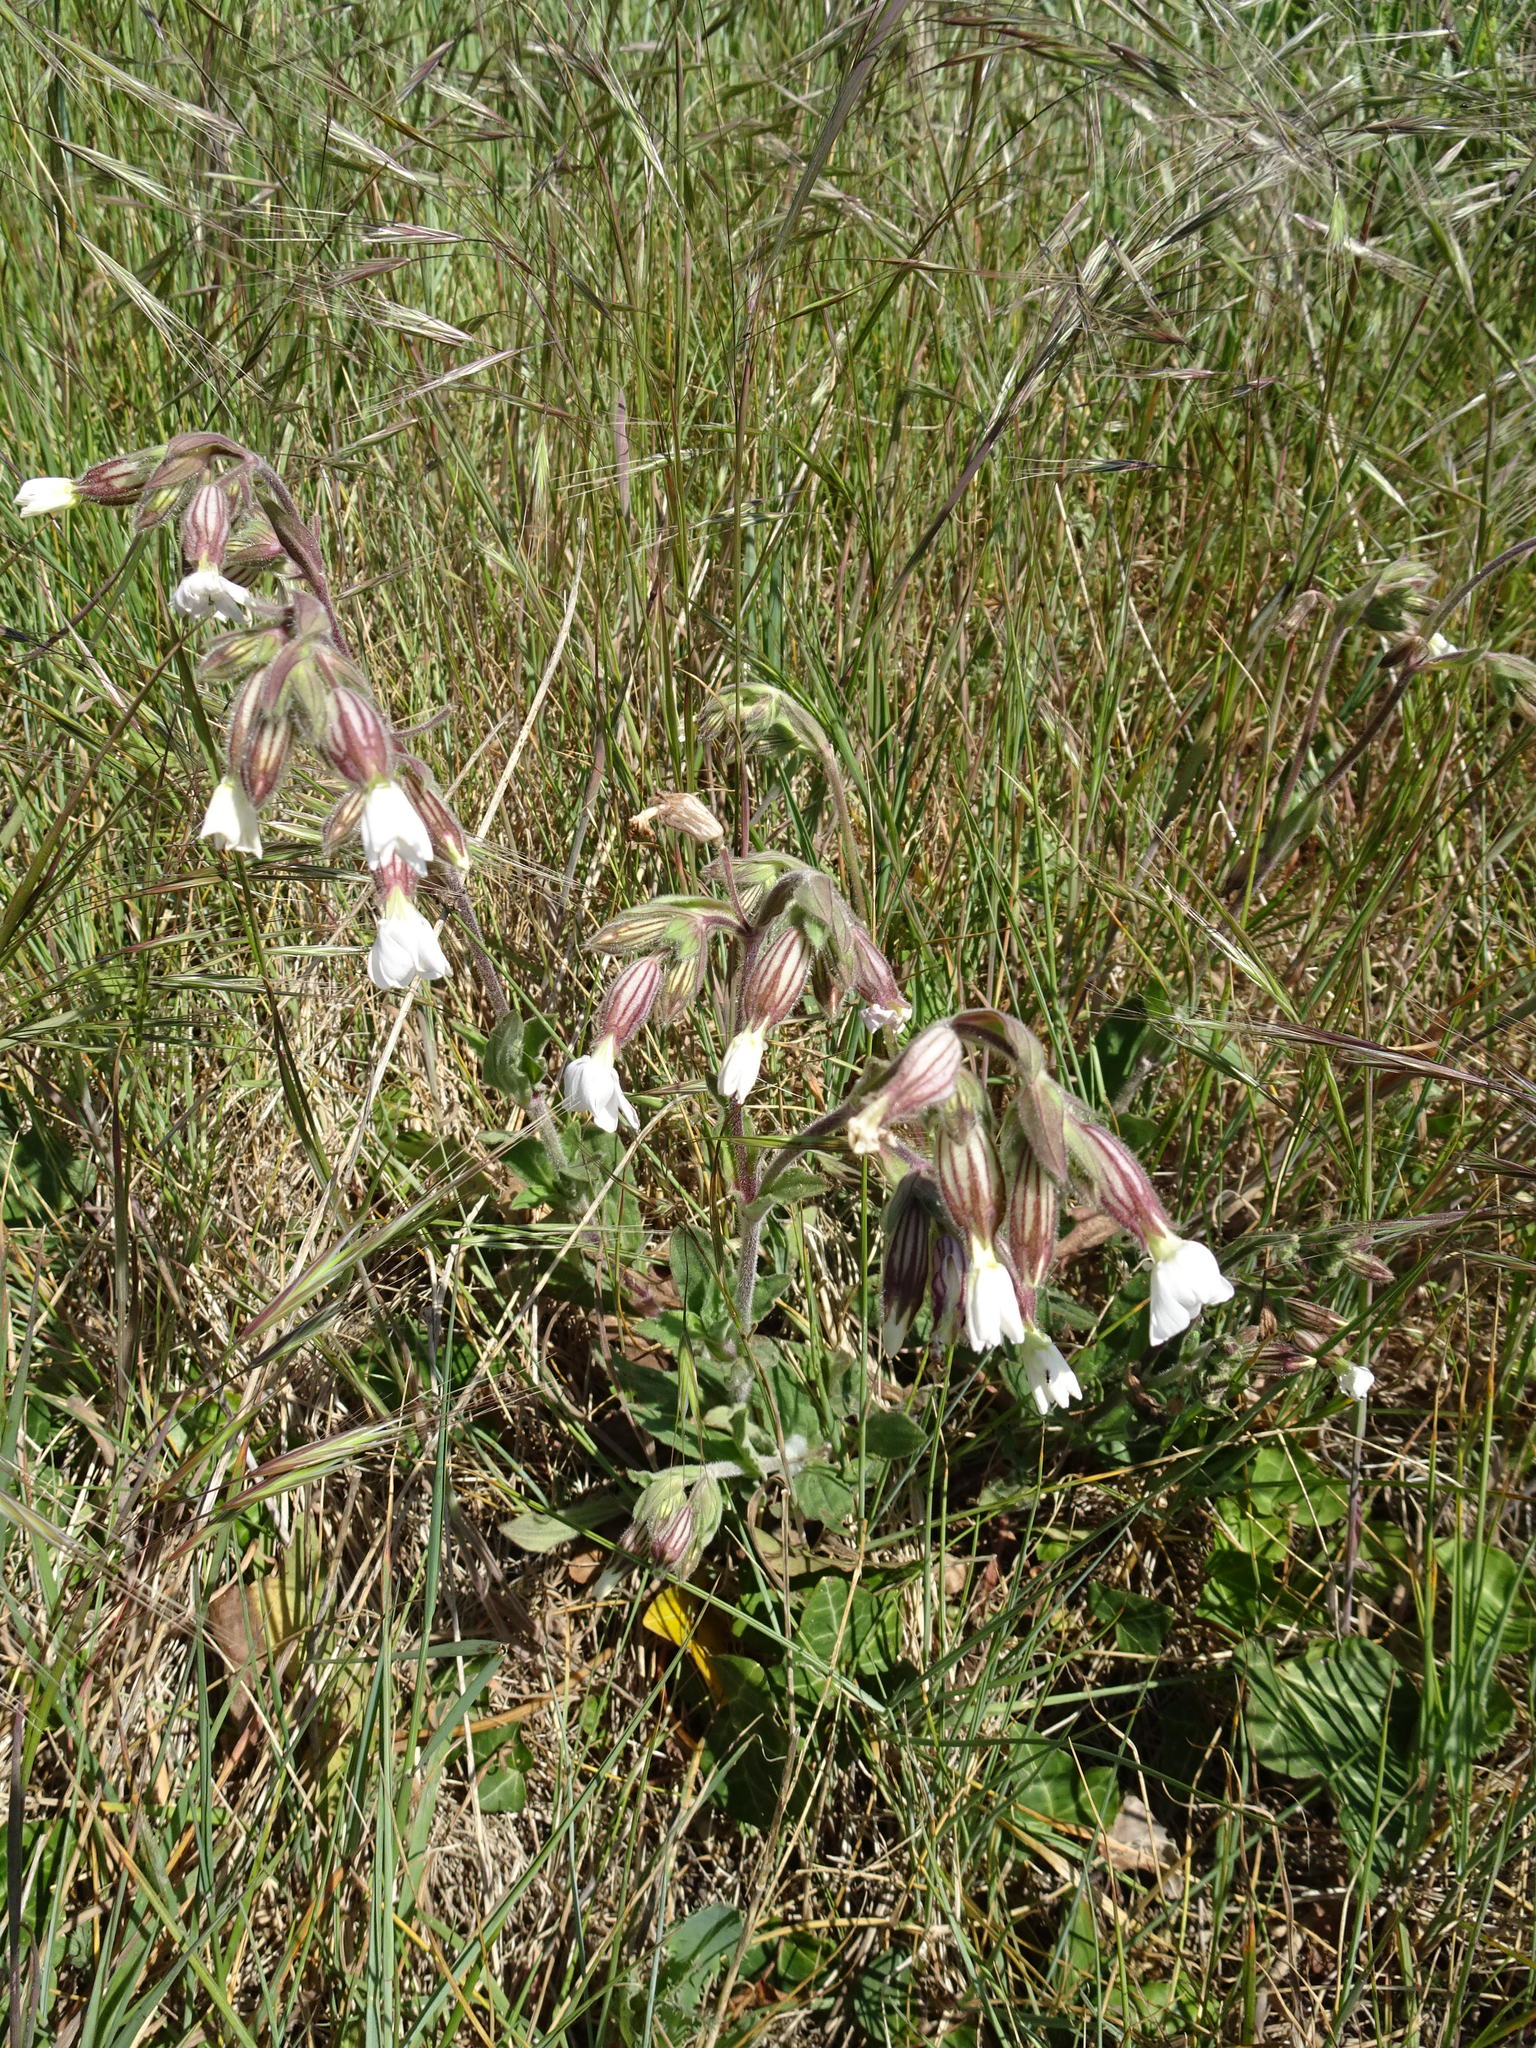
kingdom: Plantae
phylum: Tracheophyta
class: Magnoliopsida
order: Caryophyllales
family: Caryophyllaceae
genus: Silene
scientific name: Silene latifolia
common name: White campion
